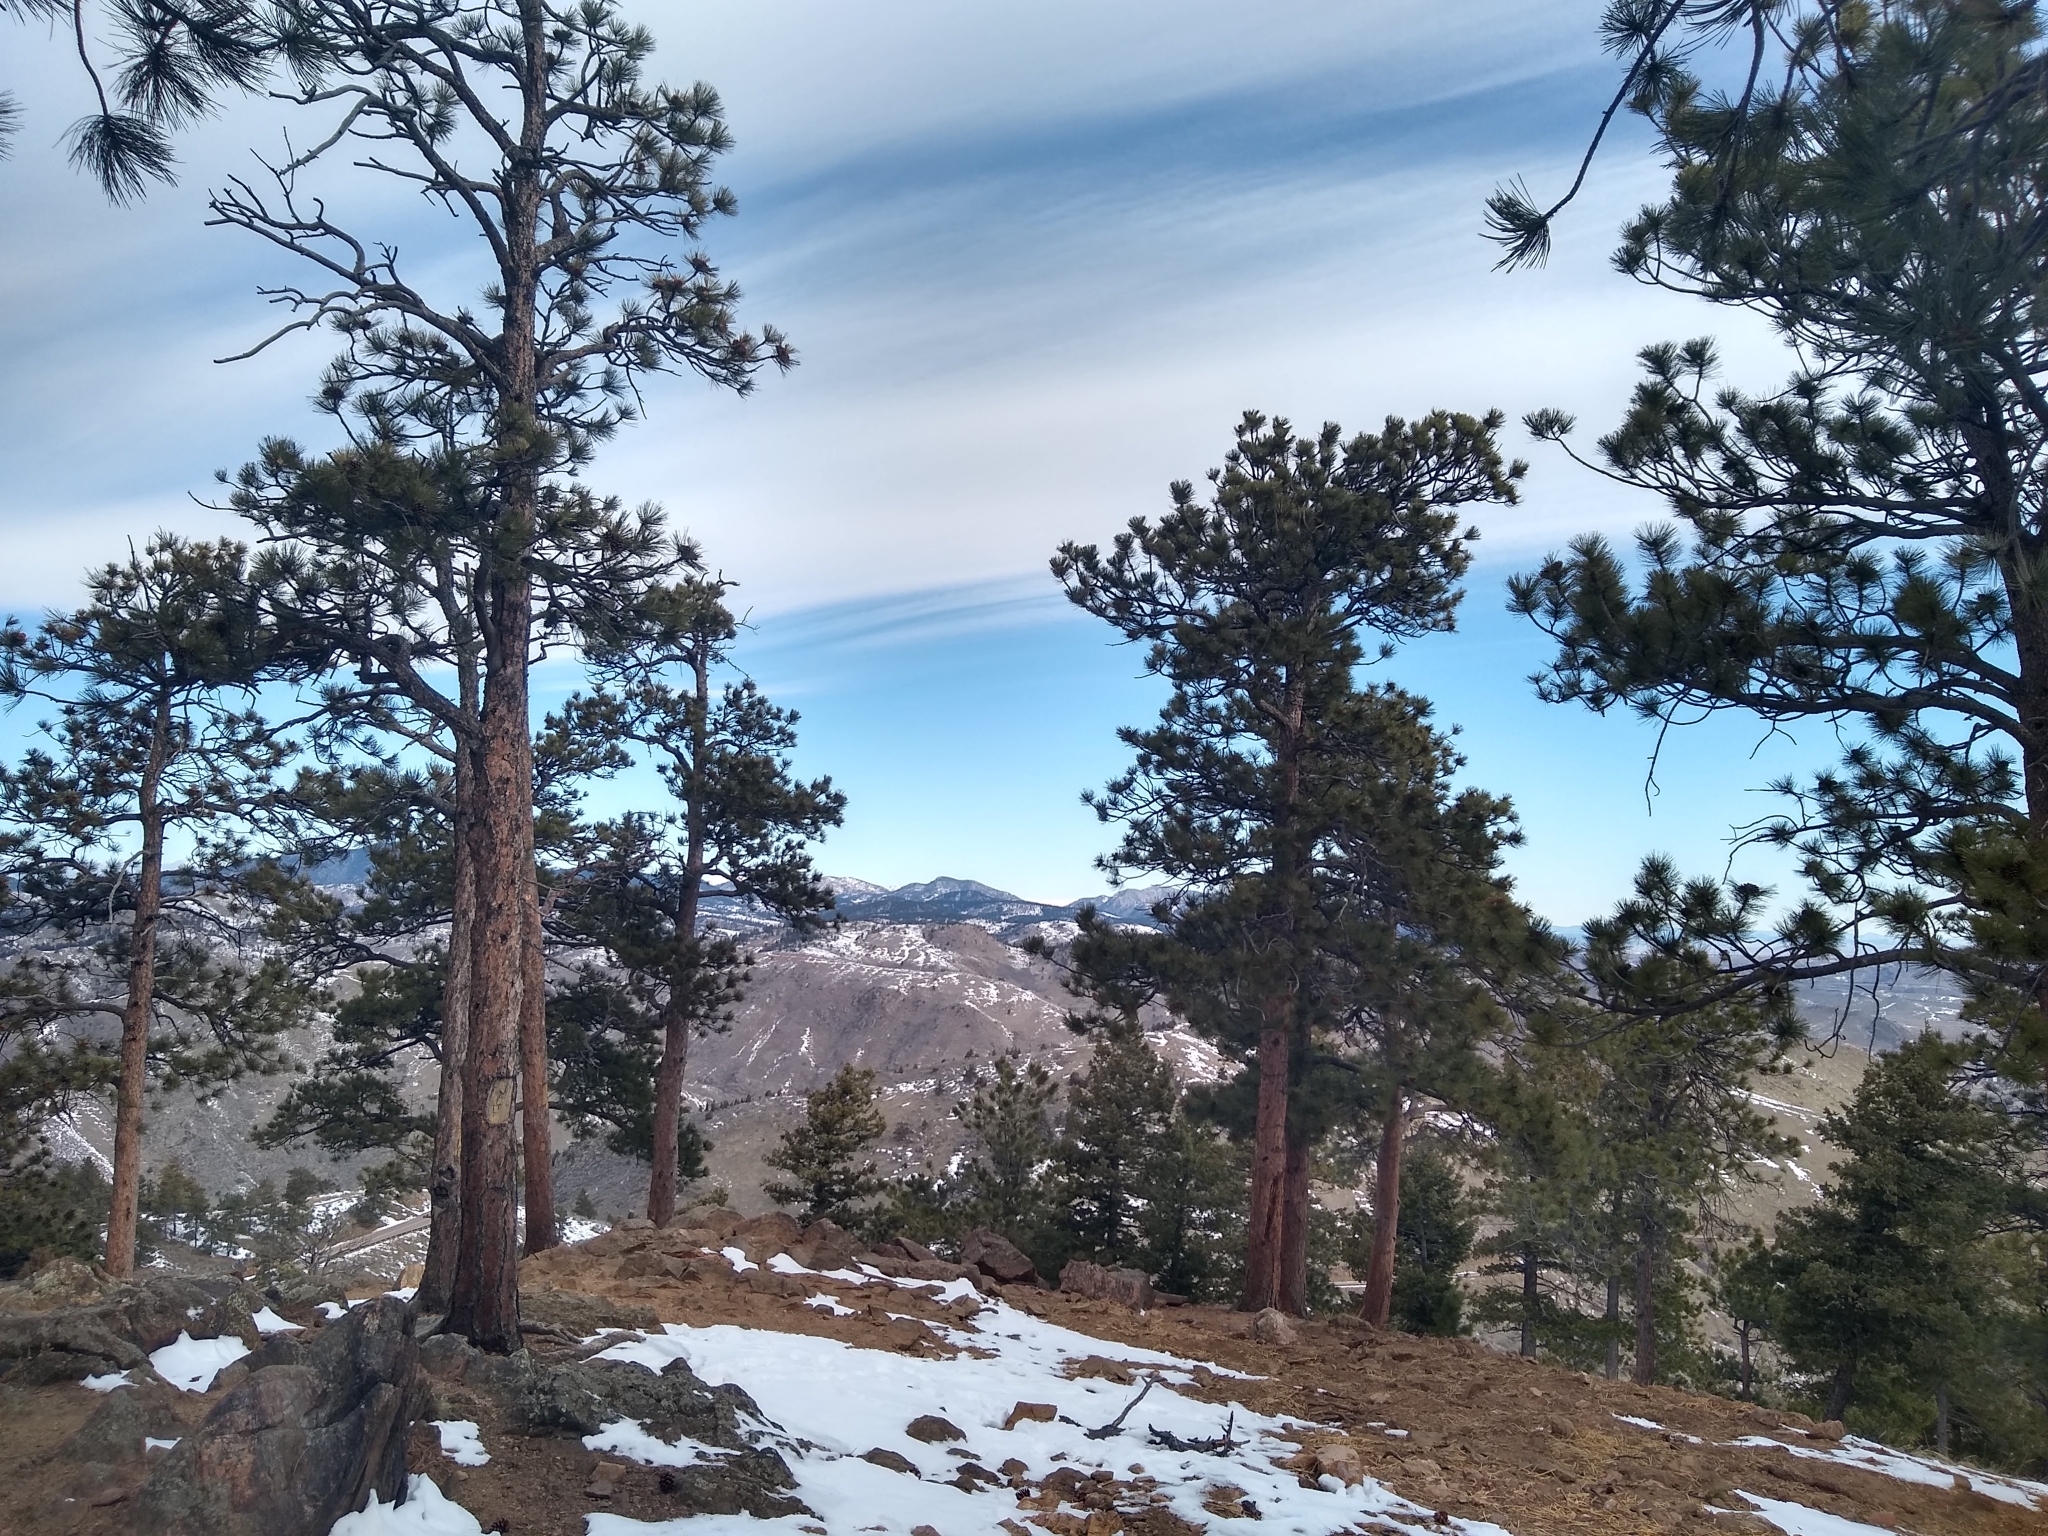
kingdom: Plantae
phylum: Tracheophyta
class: Pinopsida
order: Pinales
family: Pinaceae
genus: Pinus
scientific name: Pinus ponderosa
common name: Western yellow-pine
